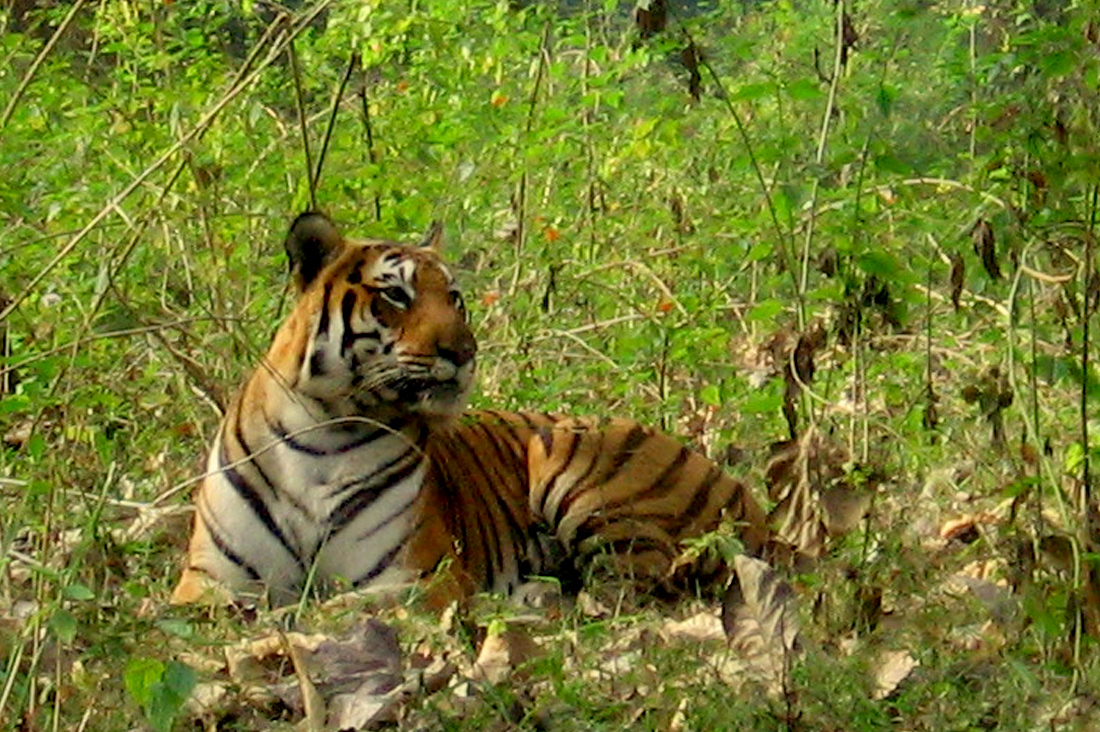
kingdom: Animalia
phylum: Chordata
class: Mammalia
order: Carnivora
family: Felidae
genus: Panthera
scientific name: Panthera tigris
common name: Tiger
